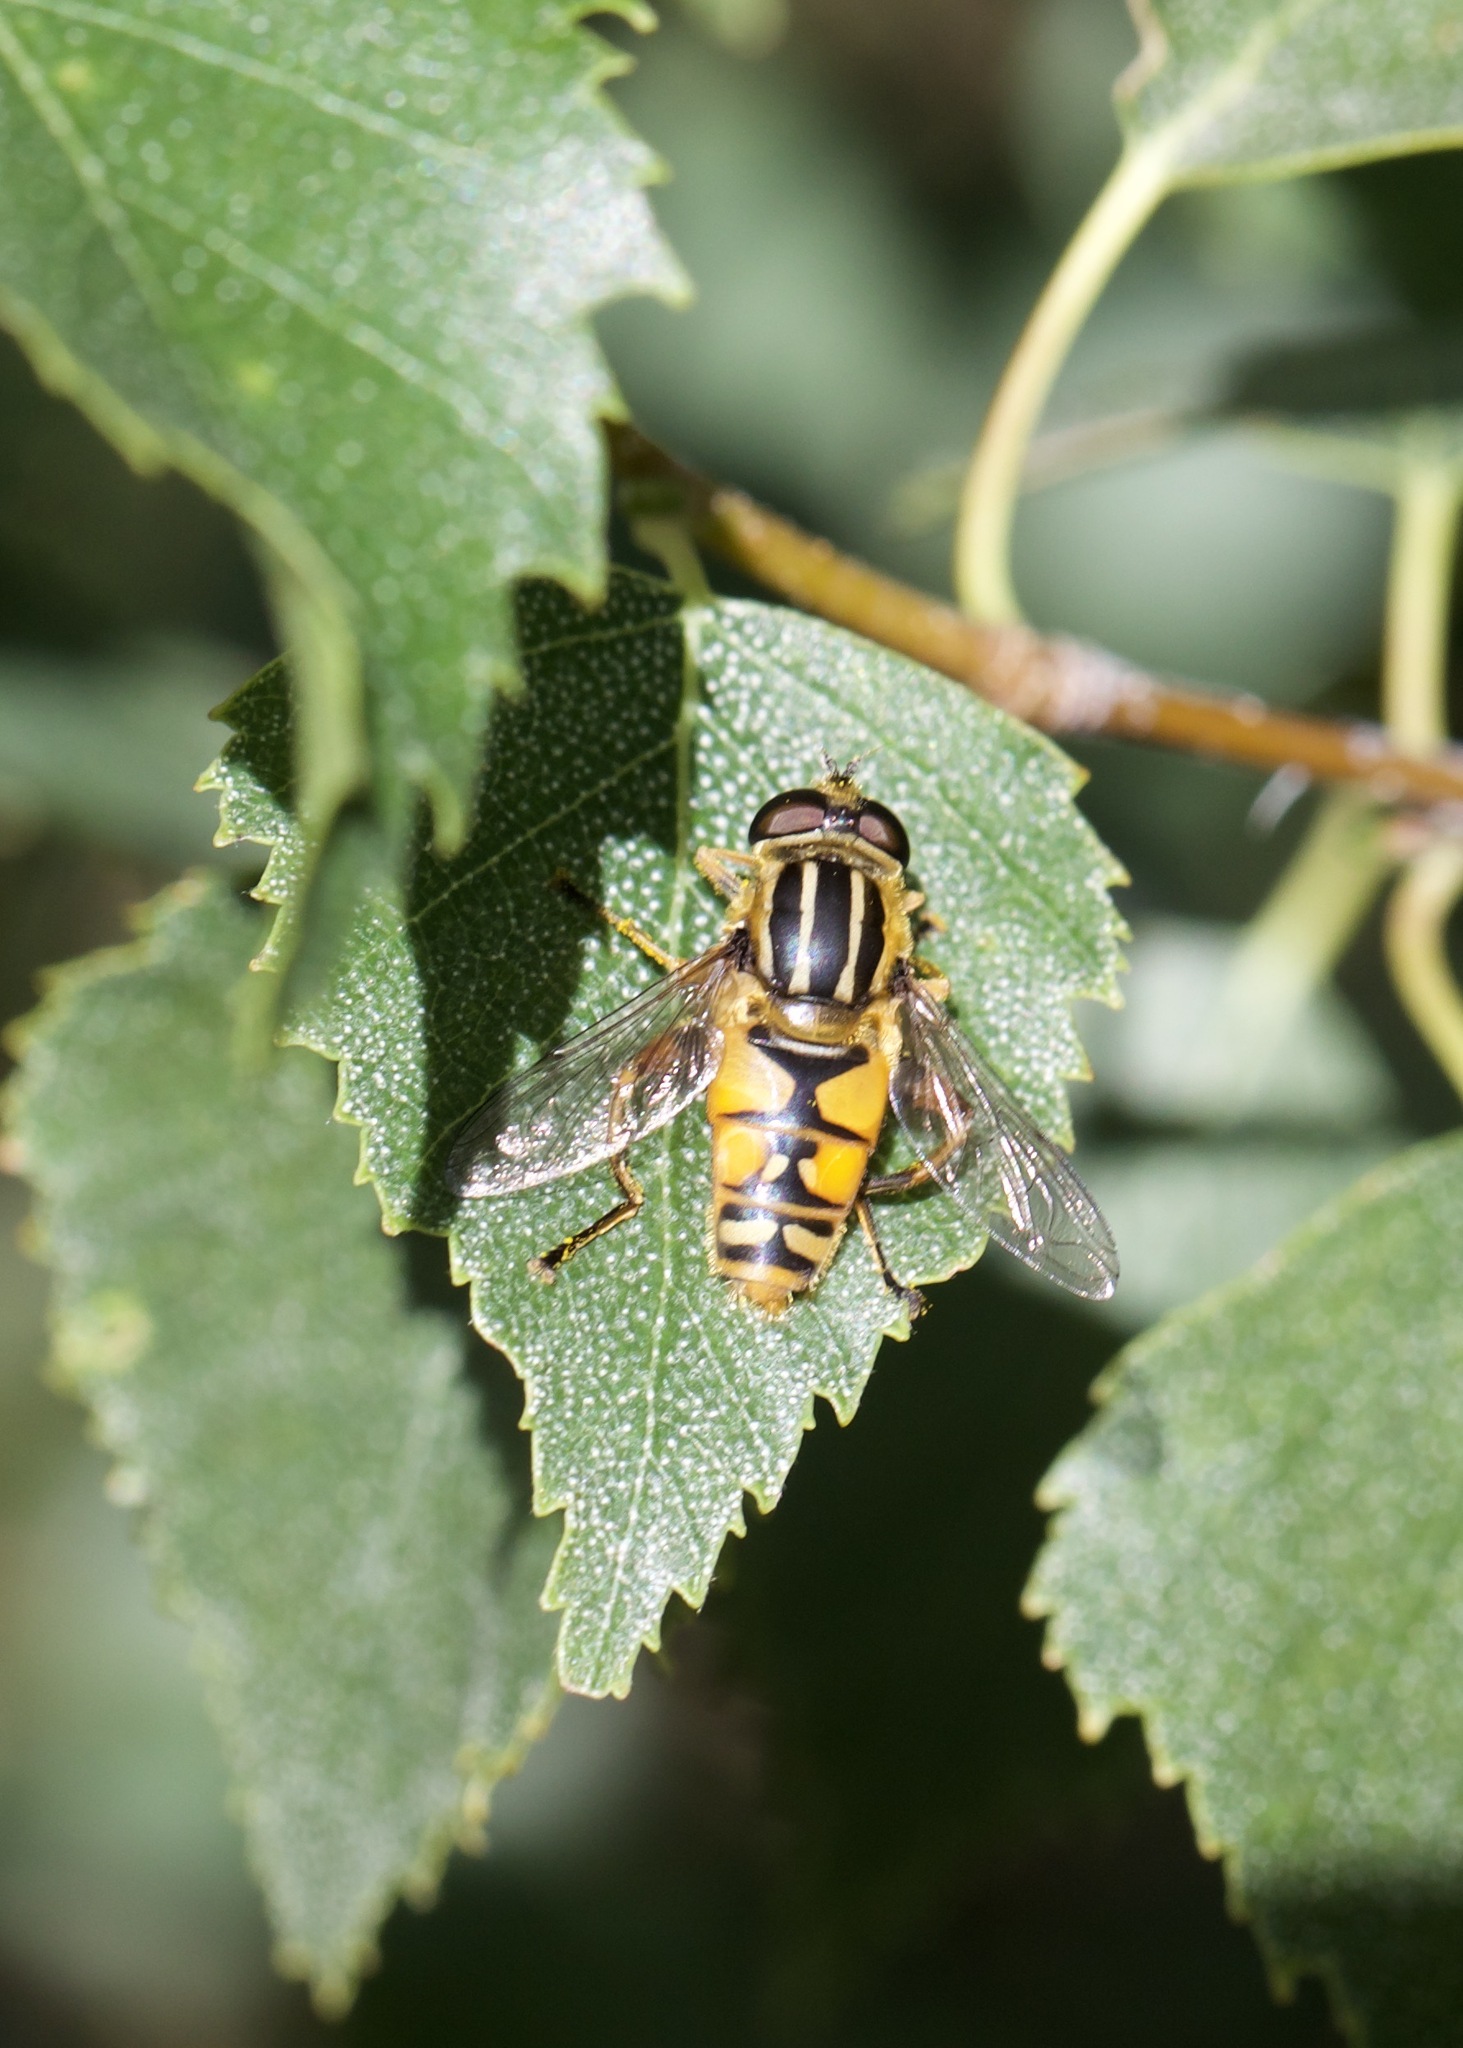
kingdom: Animalia
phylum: Arthropoda
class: Insecta
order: Diptera
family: Syrphidae
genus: Helophilus
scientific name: Helophilus pendulus
